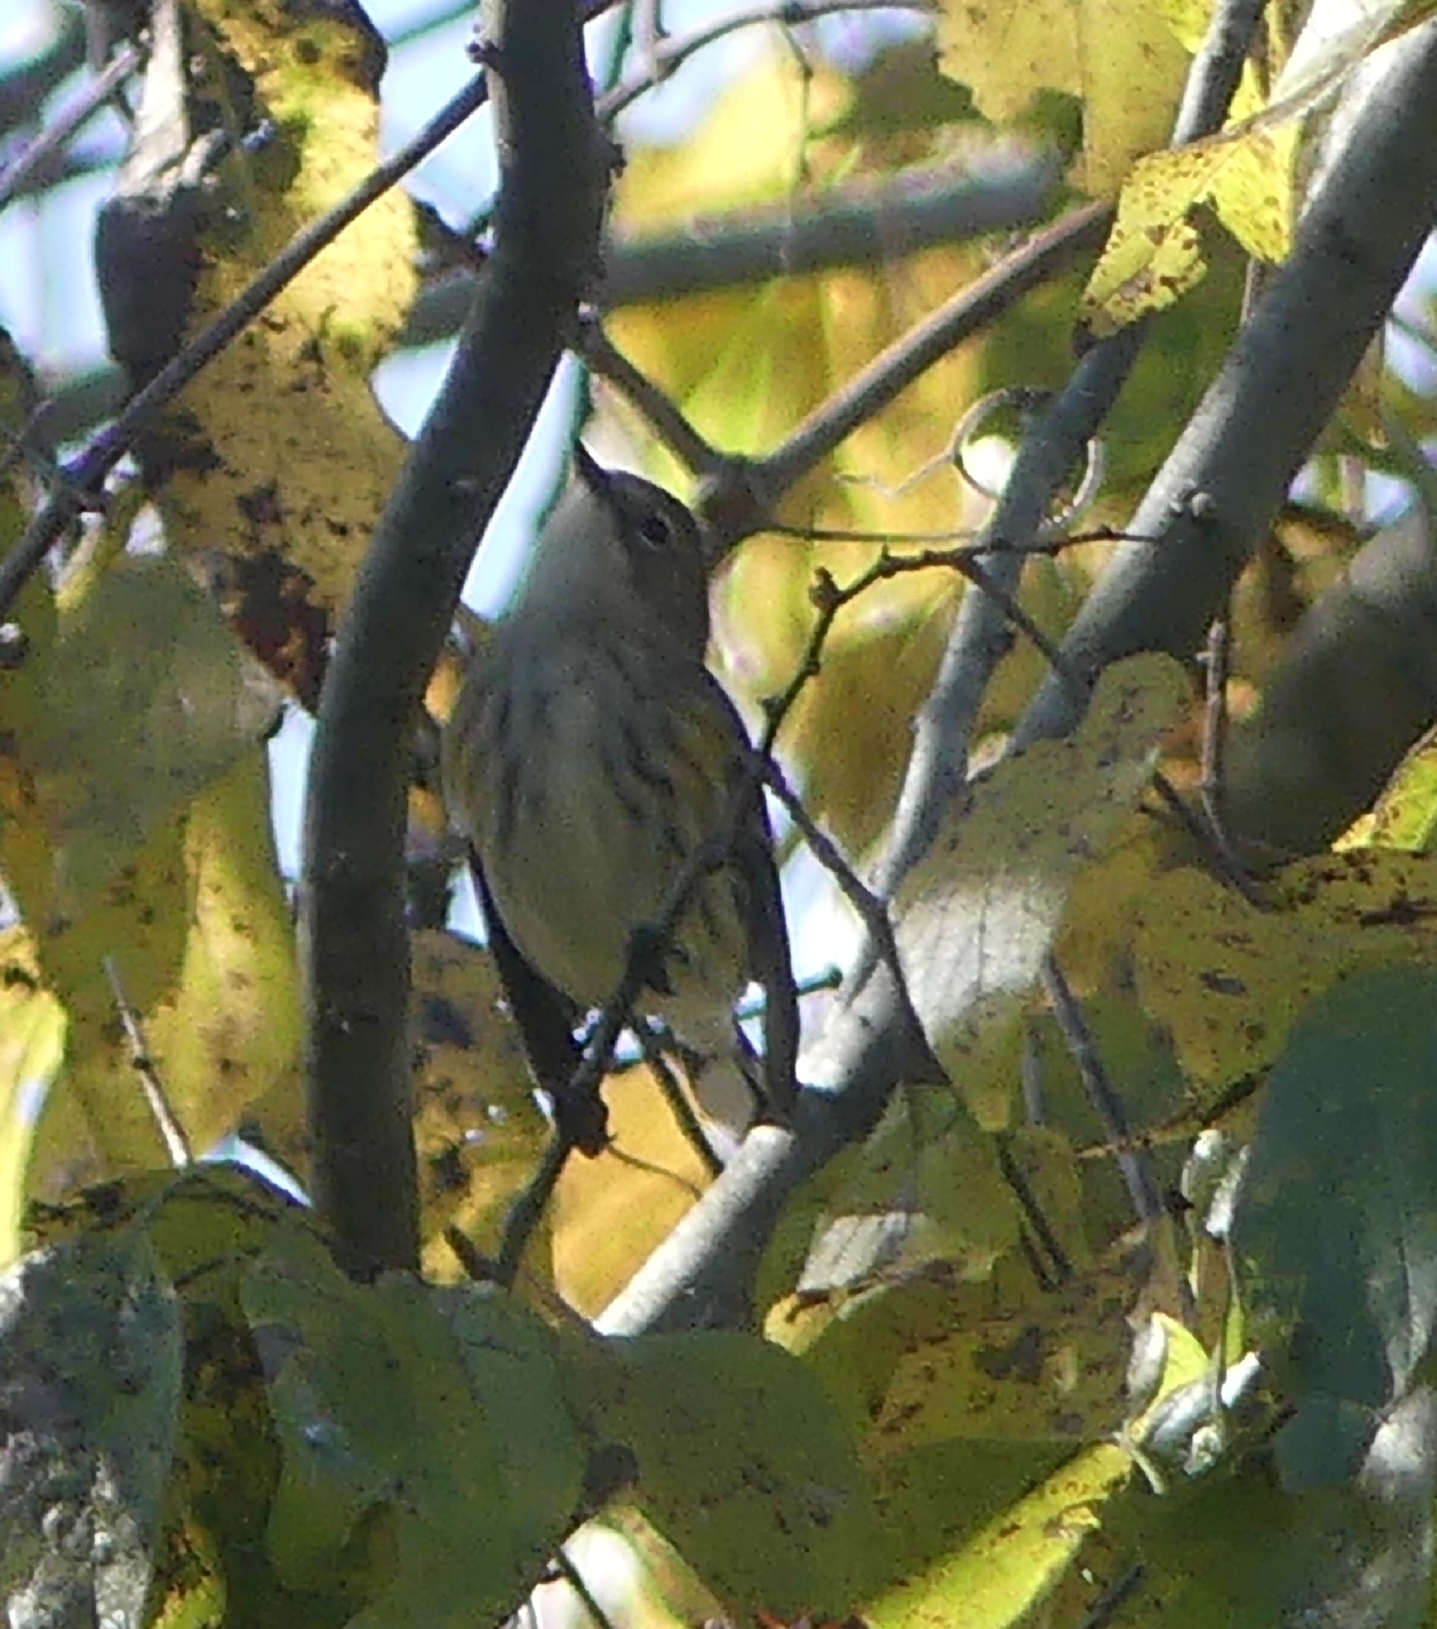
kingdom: Animalia
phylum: Chordata
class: Aves
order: Passeriformes
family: Parulidae
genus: Setophaga
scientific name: Setophaga coronata
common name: Myrtle warbler
